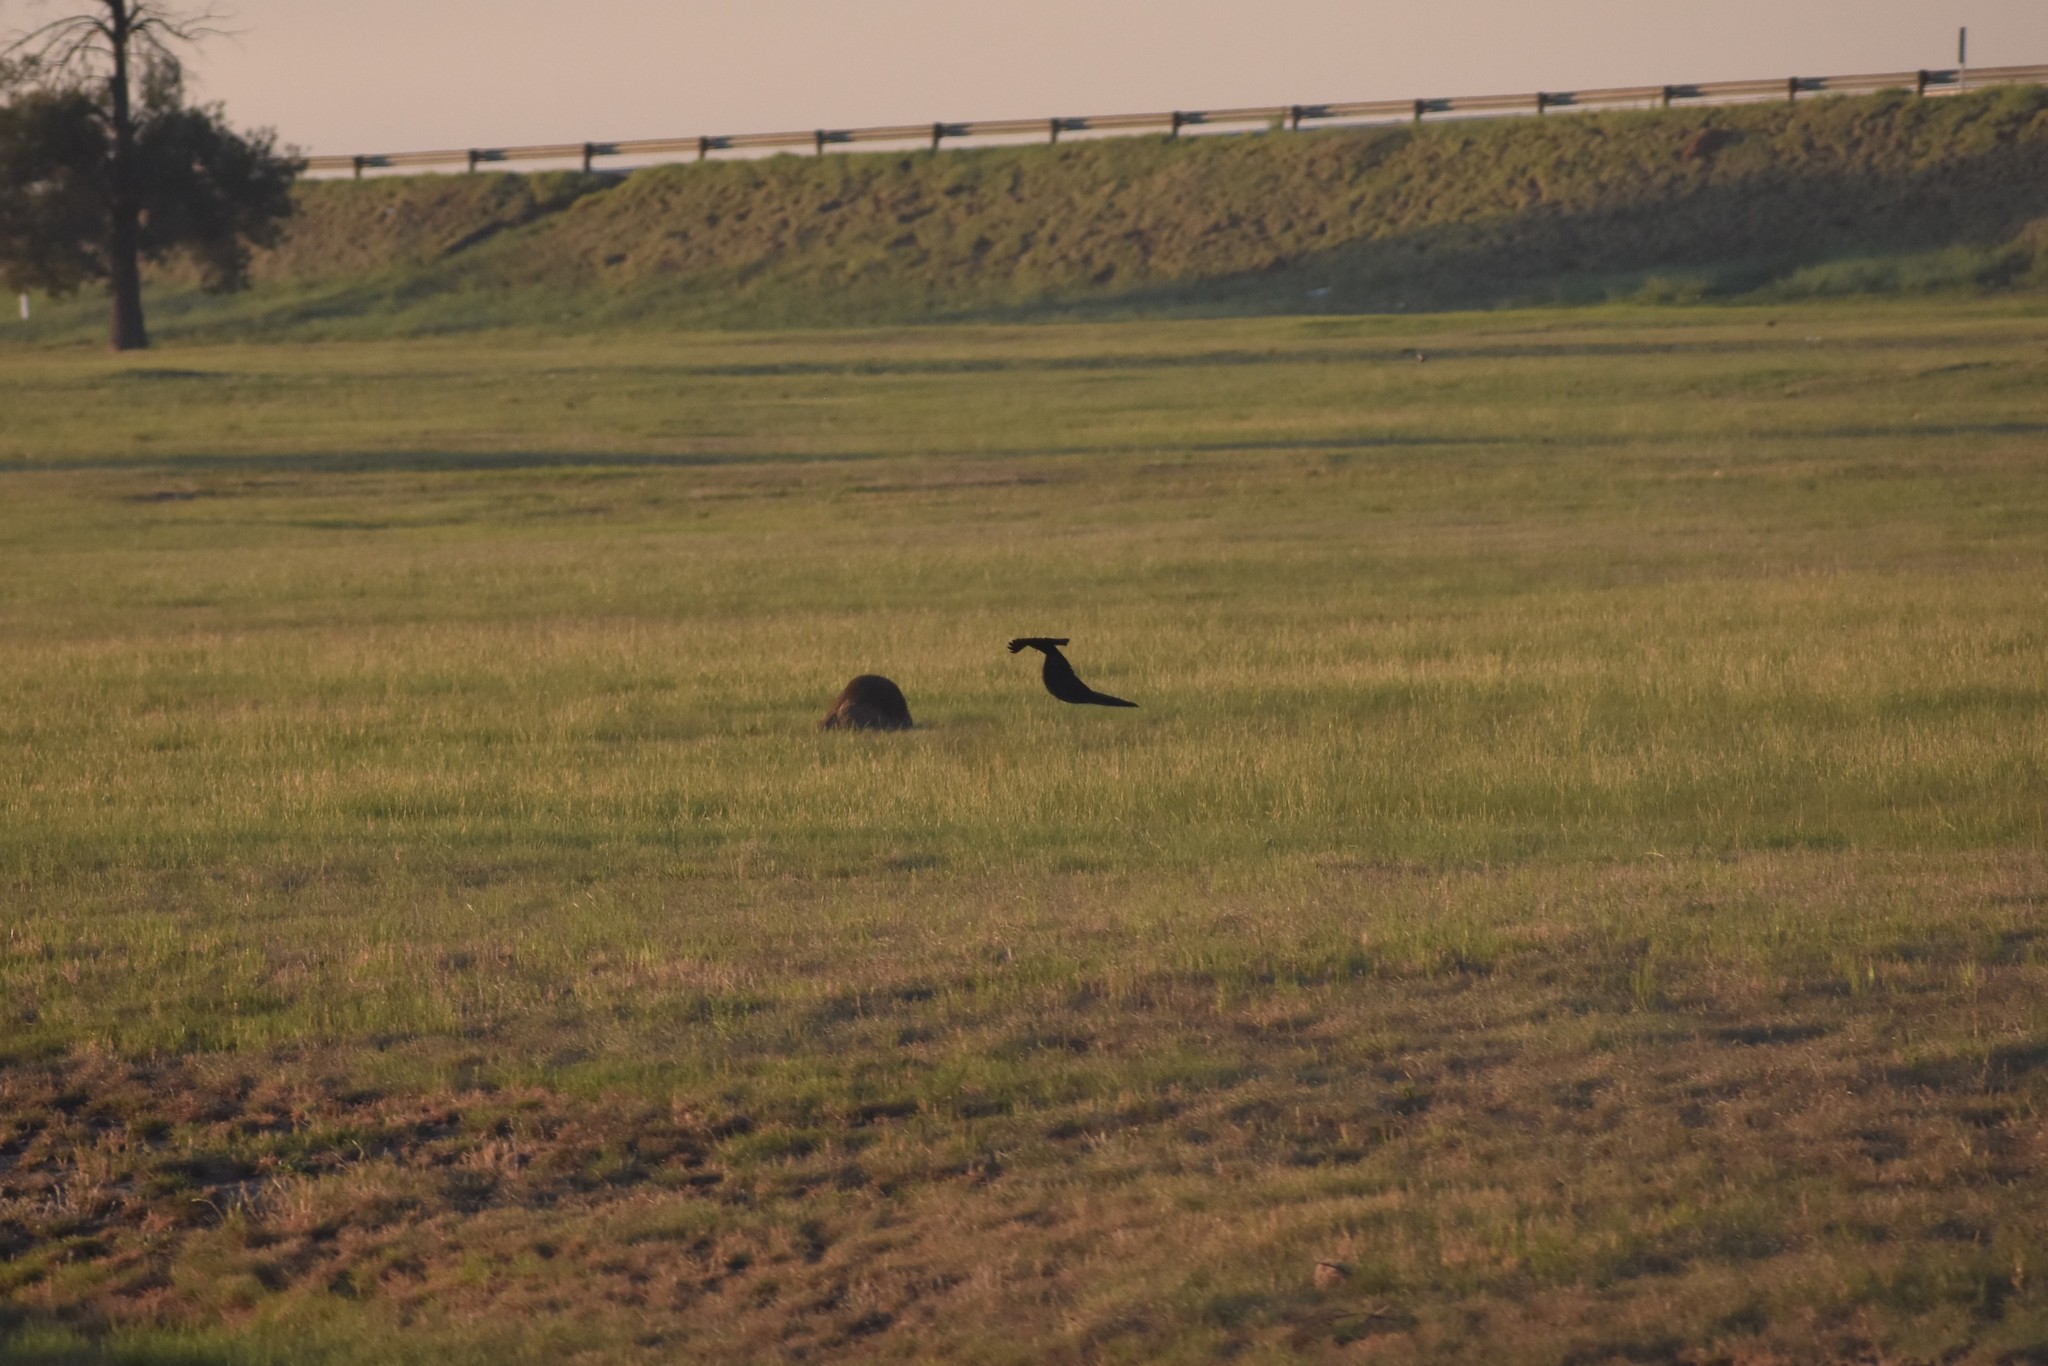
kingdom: Animalia
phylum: Chordata
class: Aves
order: Passeriformes
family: Ploceidae
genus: Euplectes
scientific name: Euplectes progne
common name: Long-tailed widowbird
